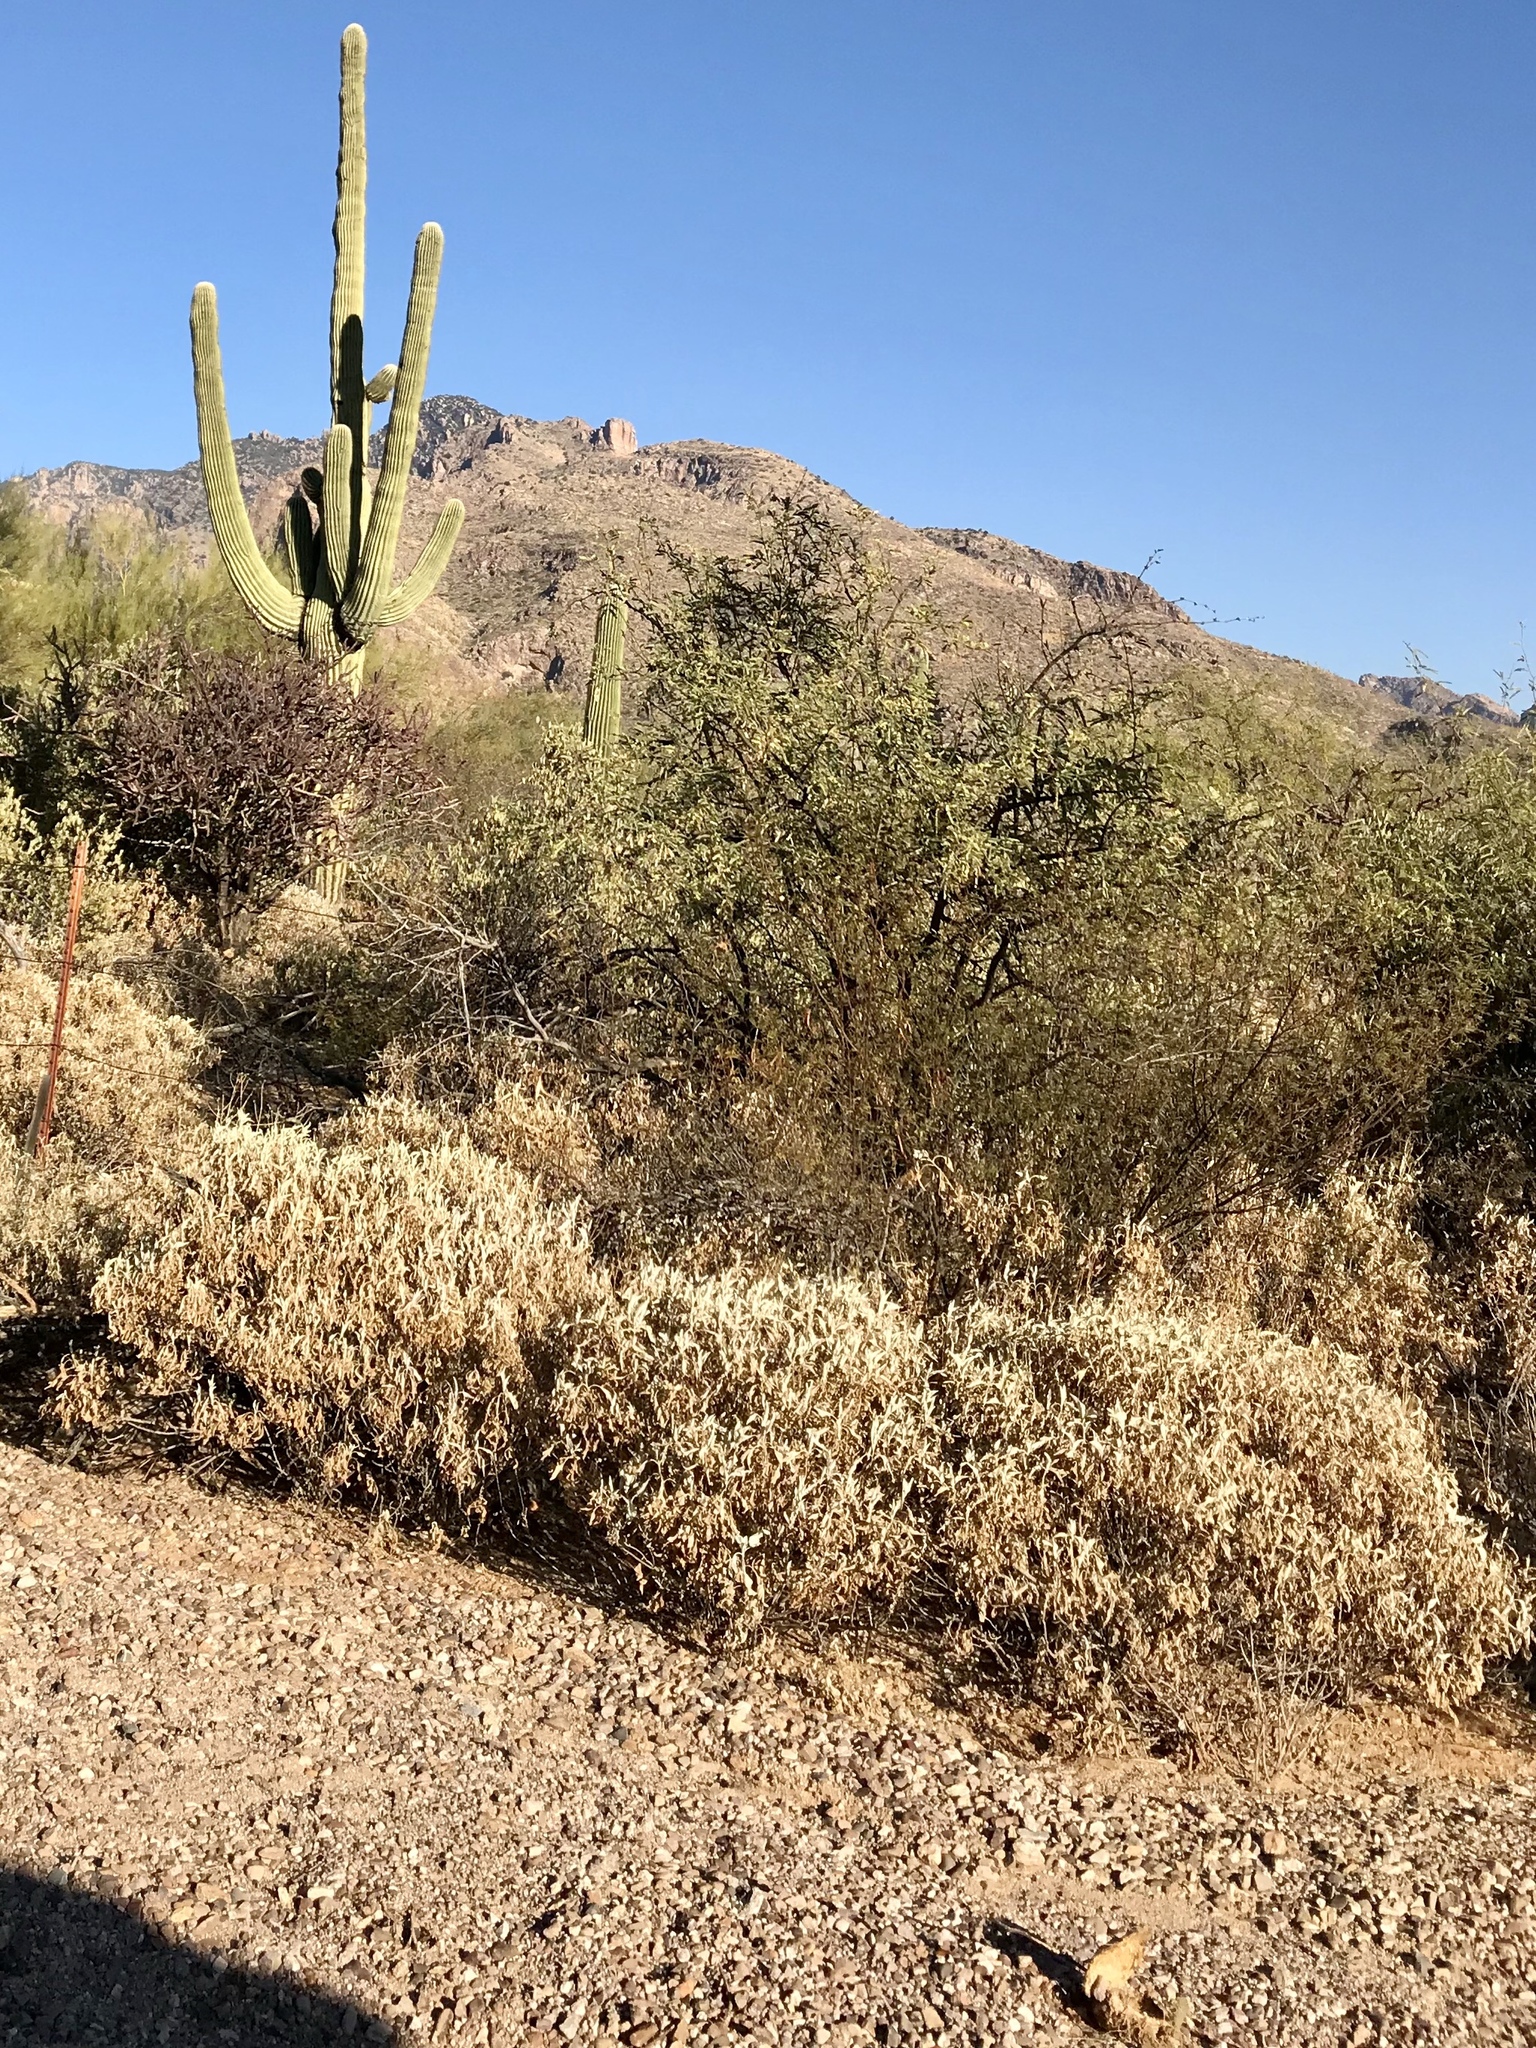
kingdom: Plantae
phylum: Tracheophyta
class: Magnoliopsida
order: Asterales
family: Asteraceae
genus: Encelia
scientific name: Encelia farinosa
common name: Brittlebush
